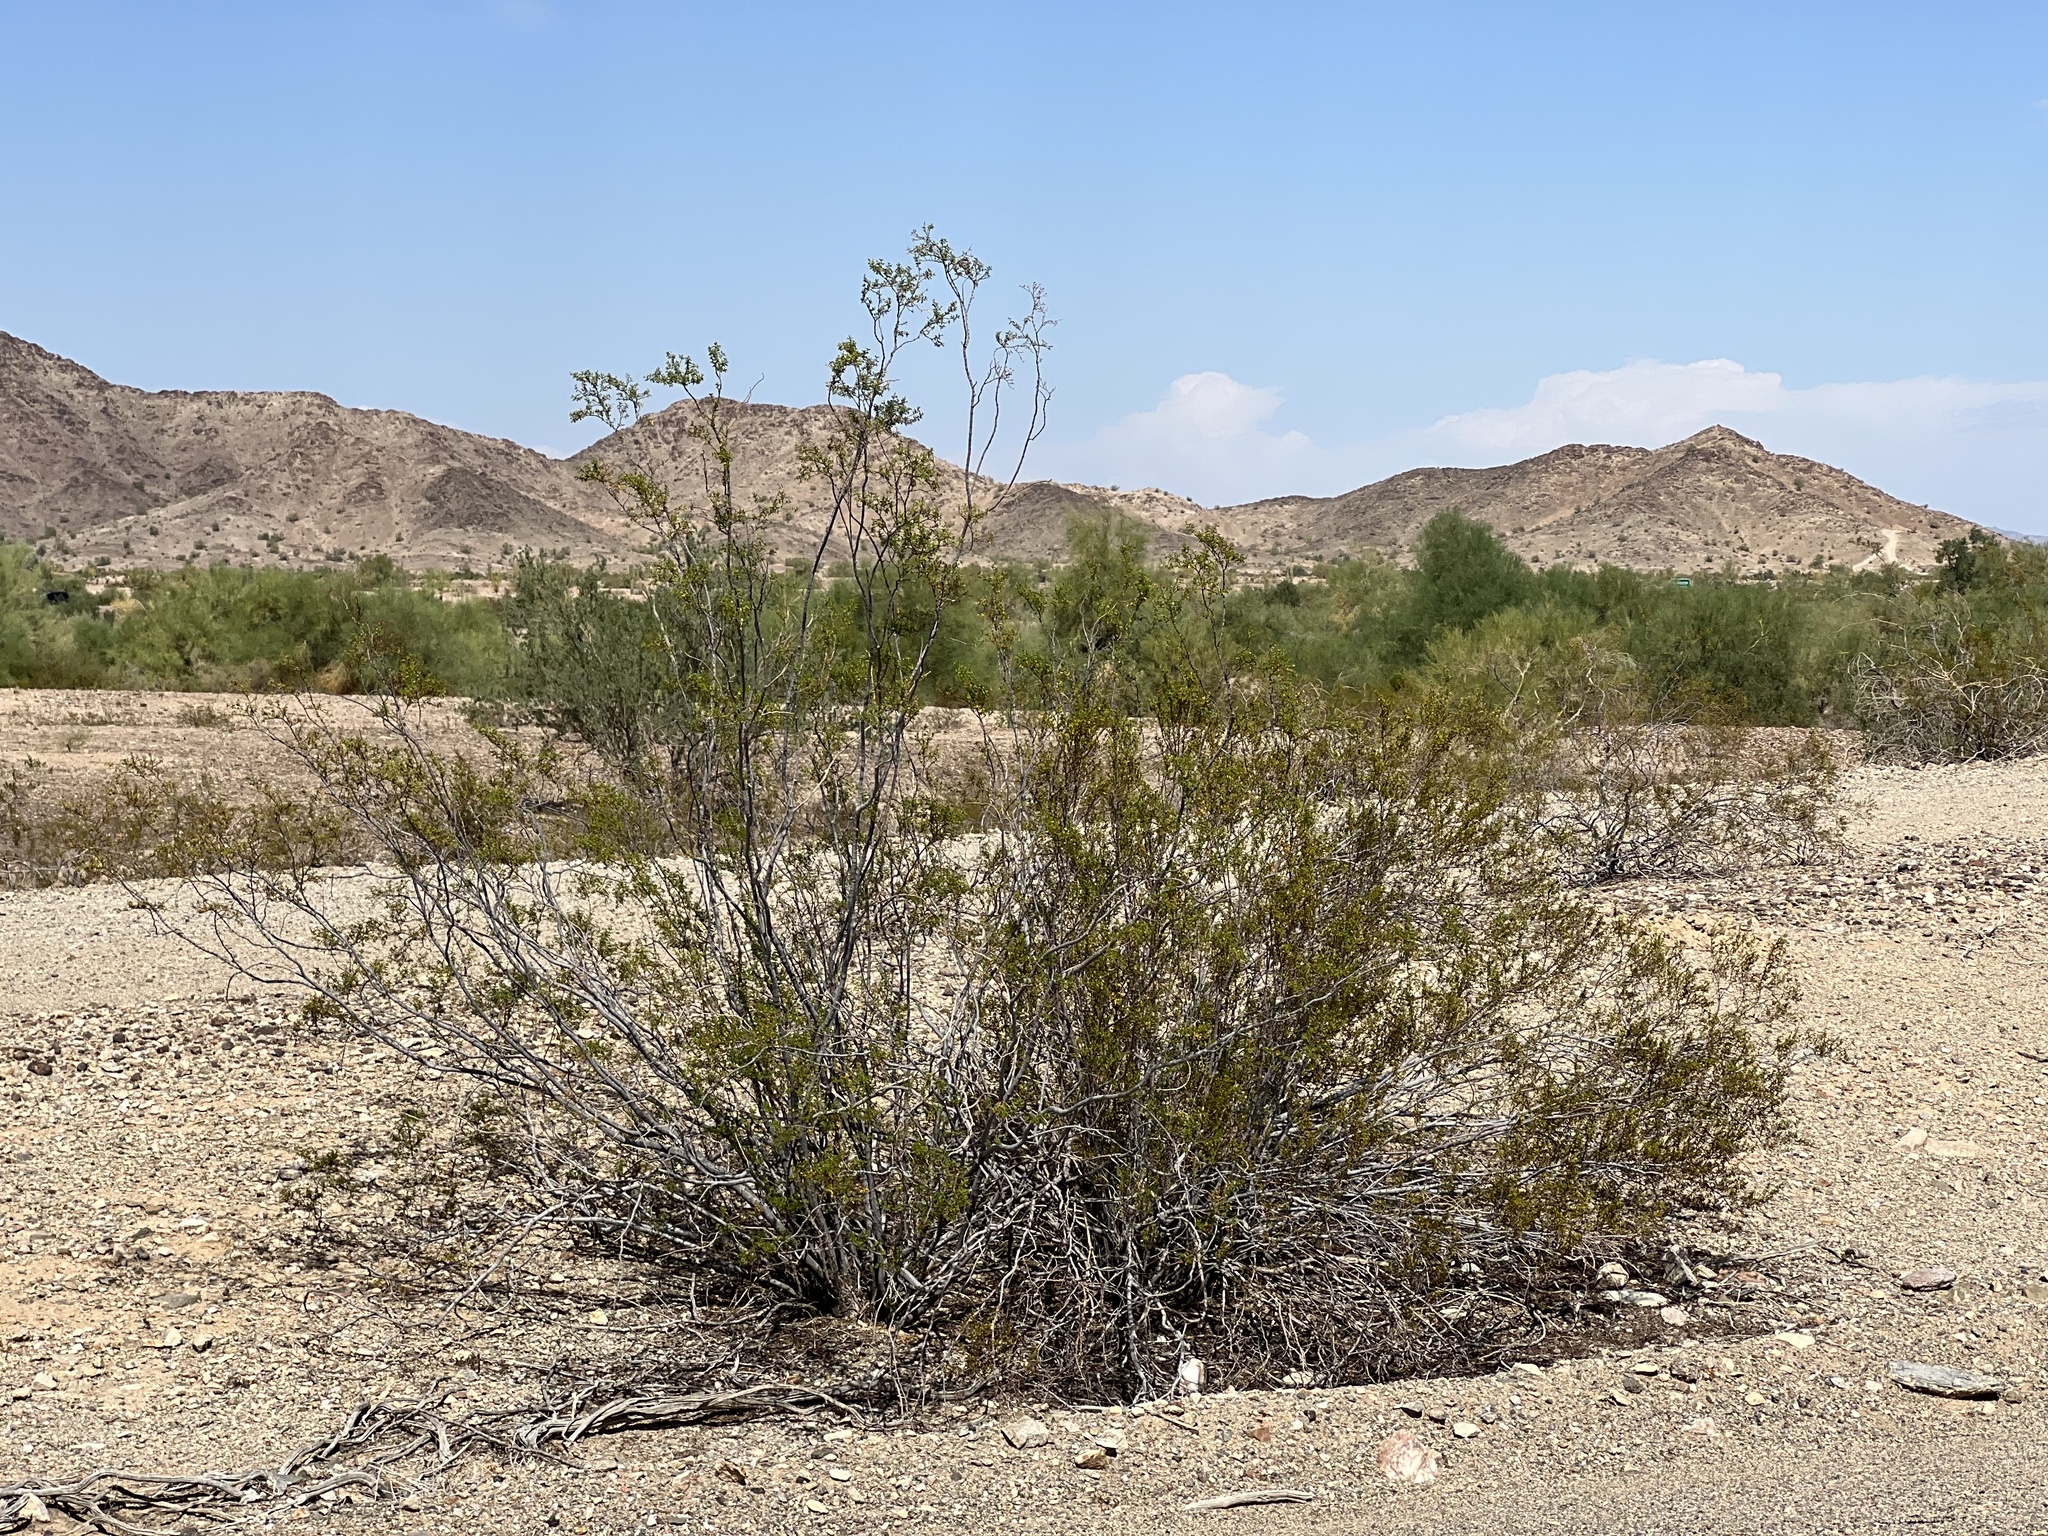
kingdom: Plantae
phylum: Tracheophyta
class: Magnoliopsida
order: Zygophyllales
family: Zygophyllaceae
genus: Larrea
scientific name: Larrea tridentata
